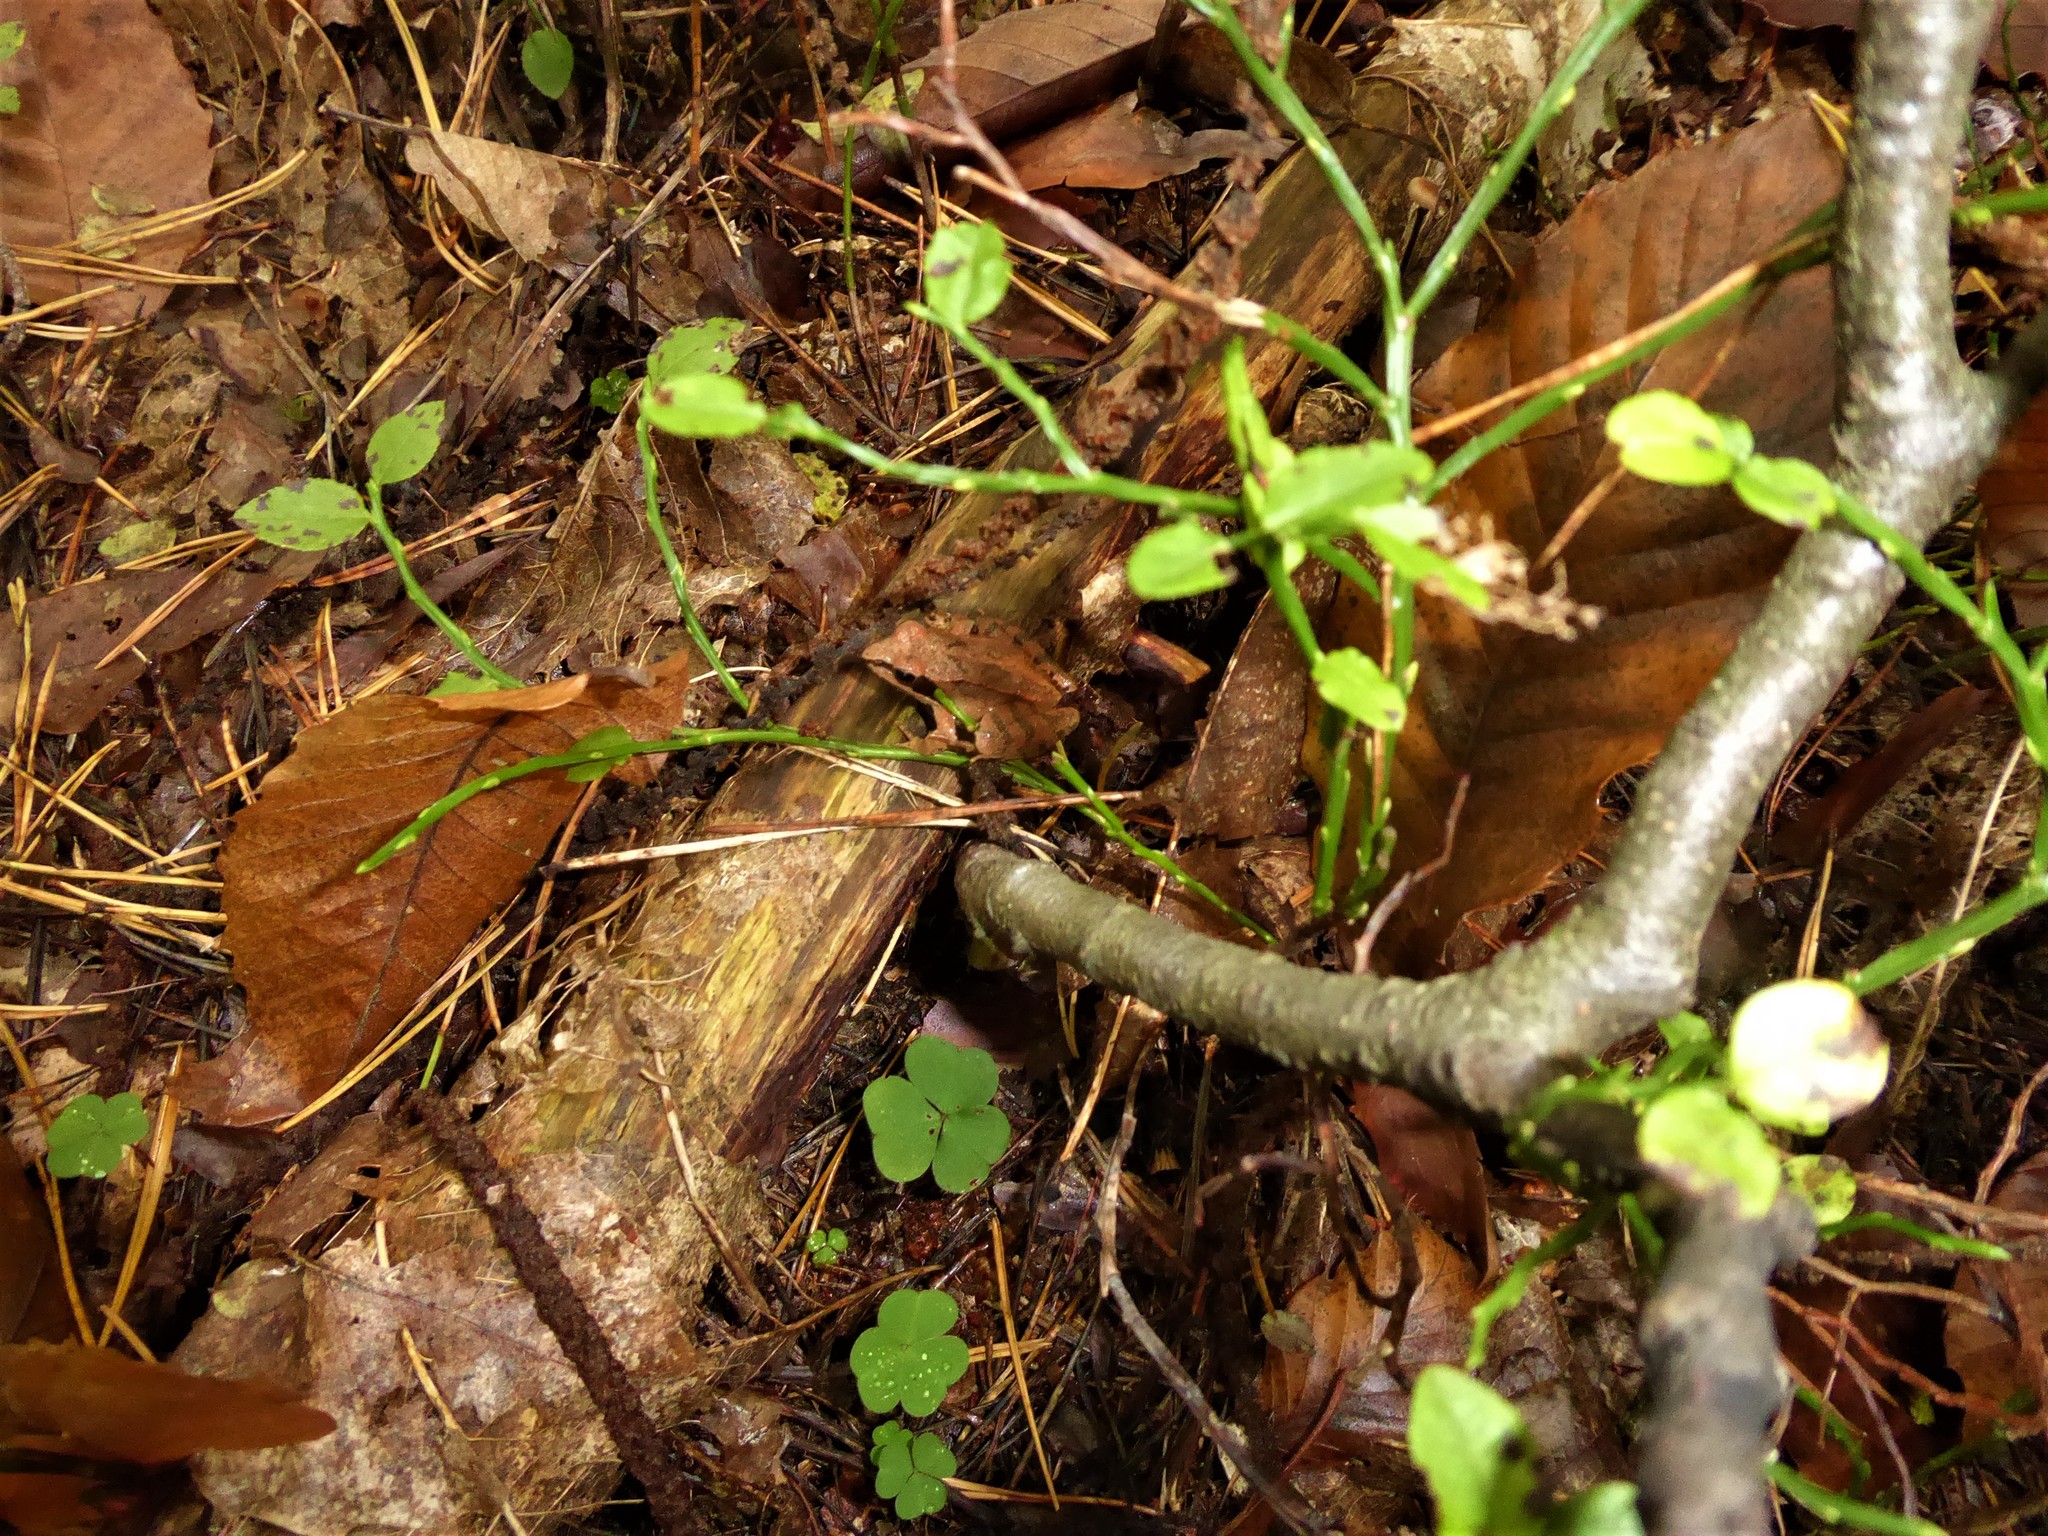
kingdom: Animalia
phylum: Chordata
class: Amphibia
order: Anura
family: Ranidae
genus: Rana
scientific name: Rana dalmatina
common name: Agile frog
